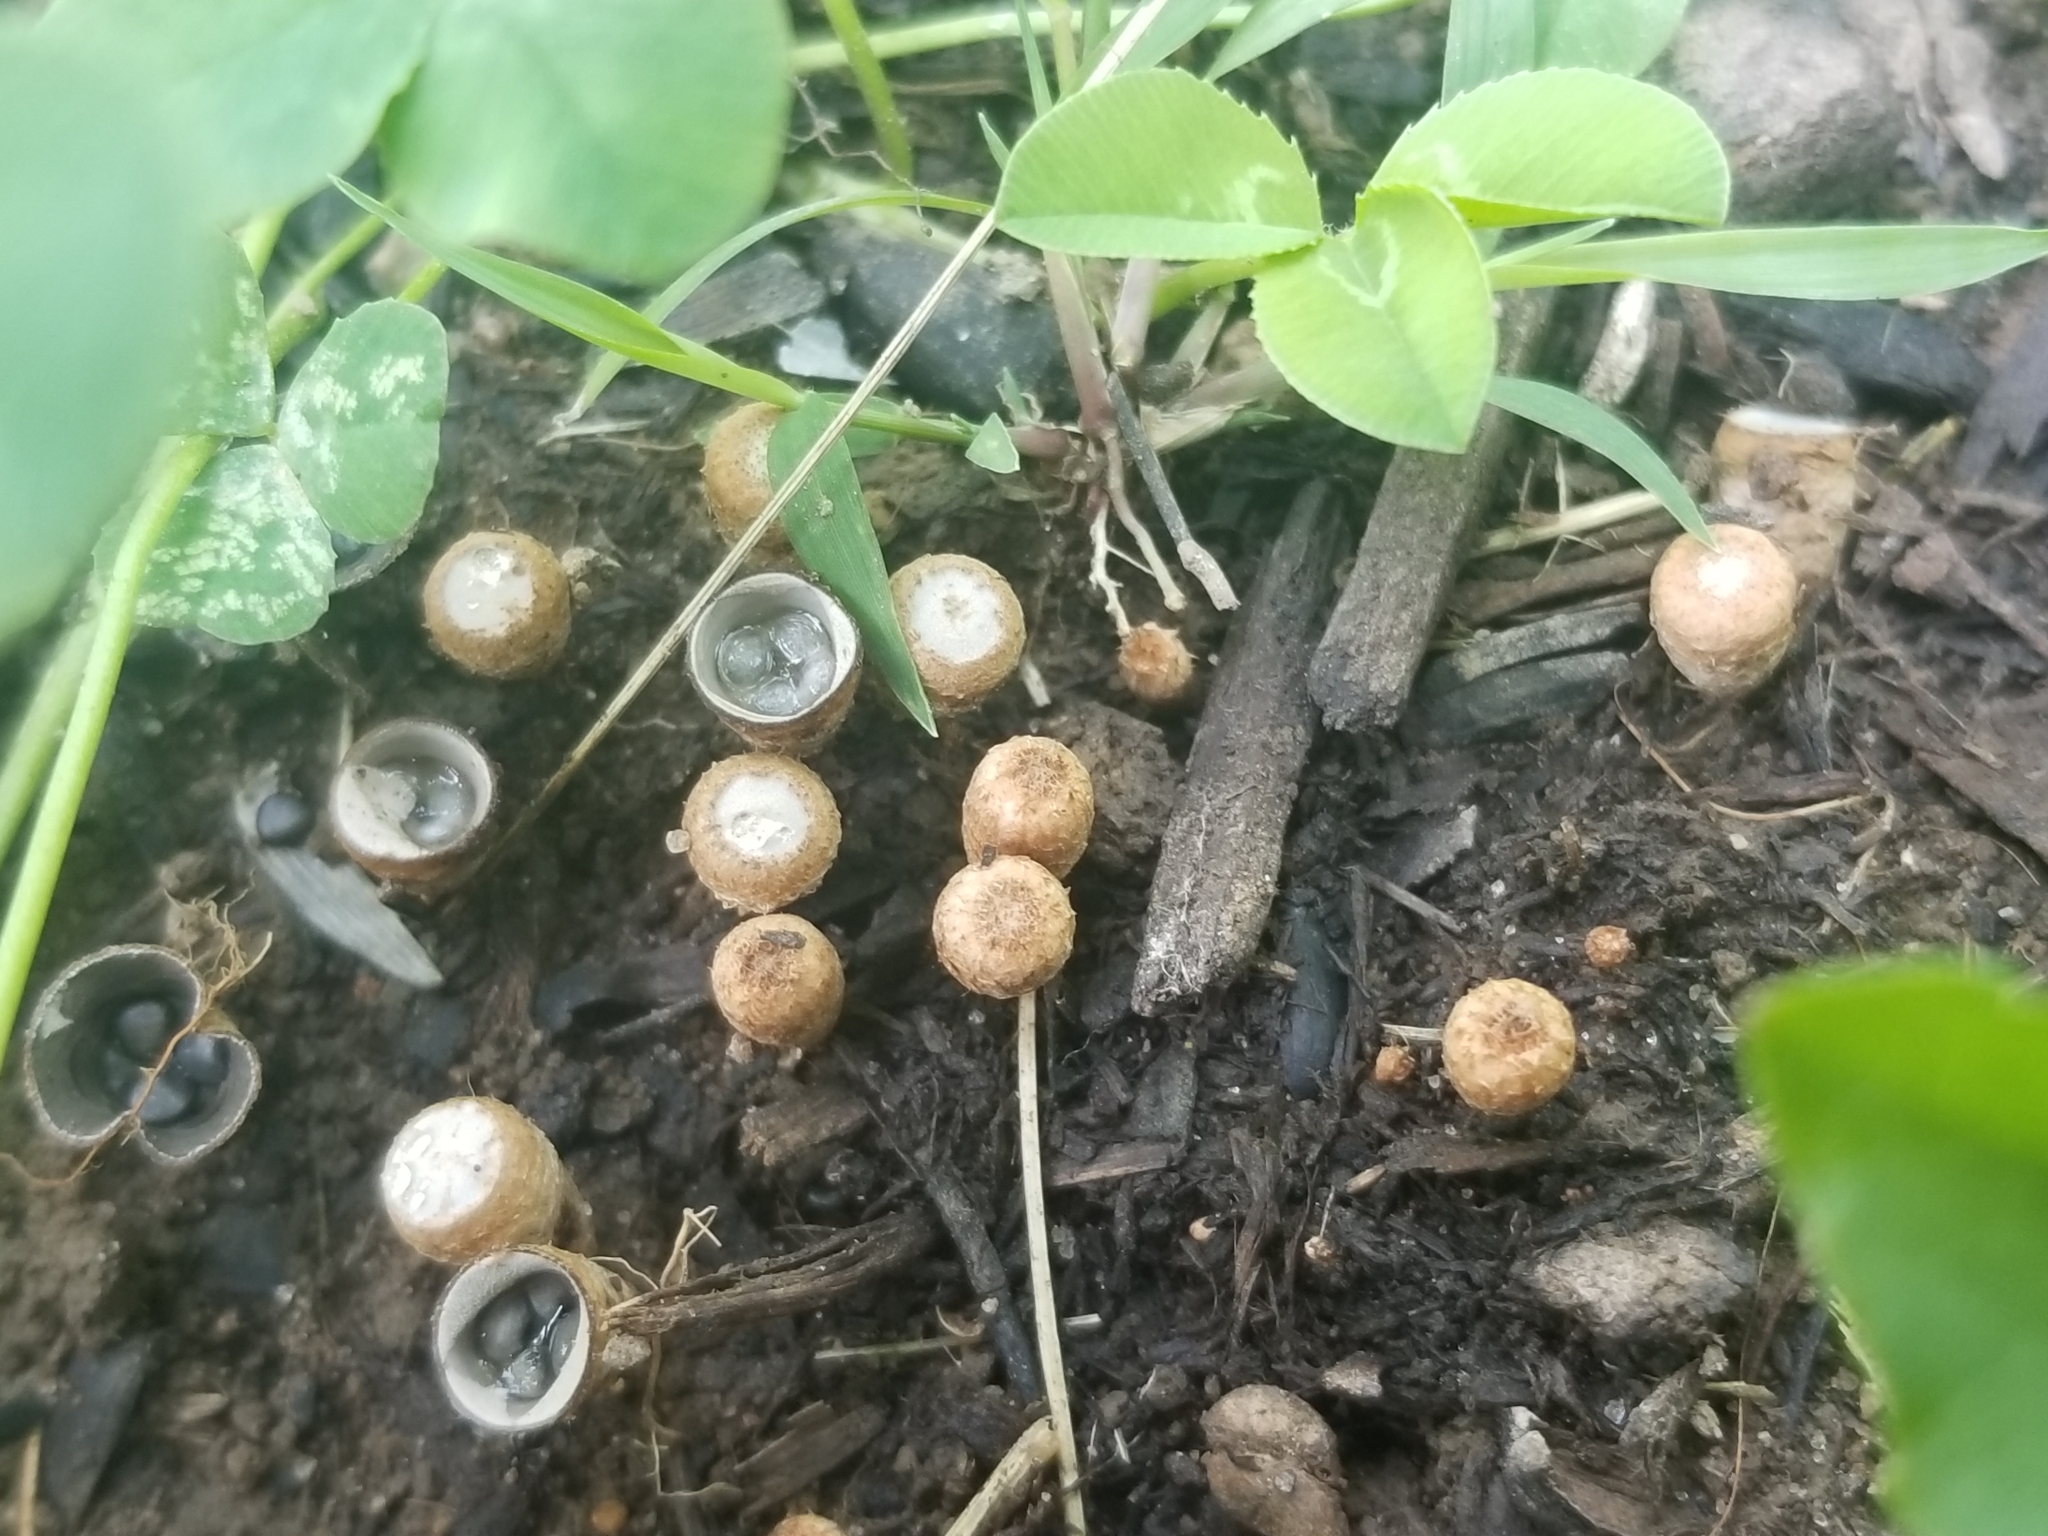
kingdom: Fungi
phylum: Basidiomycota
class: Agaricomycetes
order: Agaricales
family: Agaricaceae
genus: Cyathus
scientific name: Cyathus stercoreus
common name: Dung bird's nest
